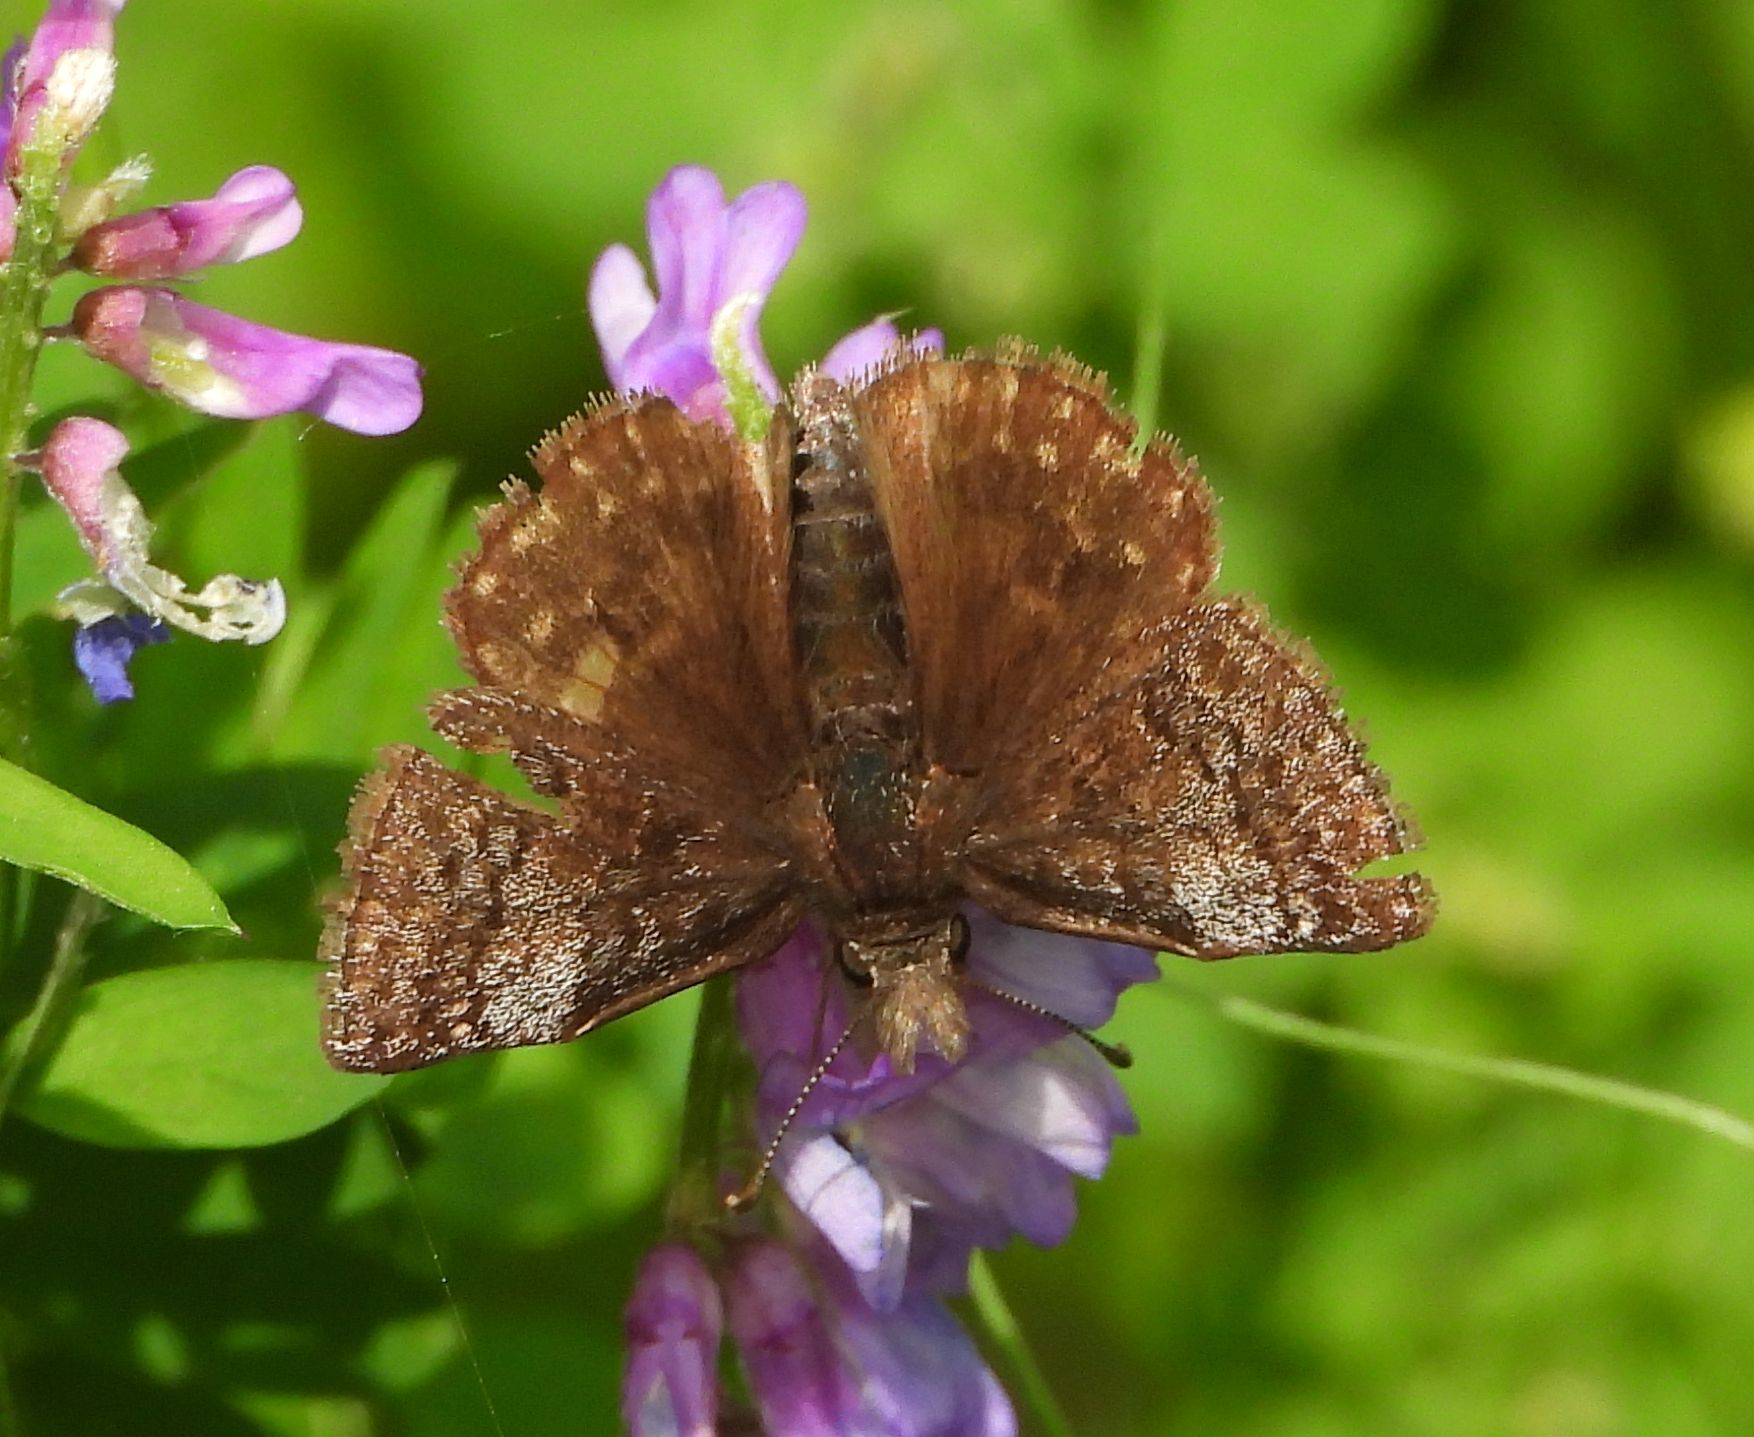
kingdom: Animalia
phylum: Arthropoda
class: Insecta
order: Lepidoptera
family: Hesperiidae
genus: Erynnis
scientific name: Erynnis icelus
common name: Dreamy duskywing
